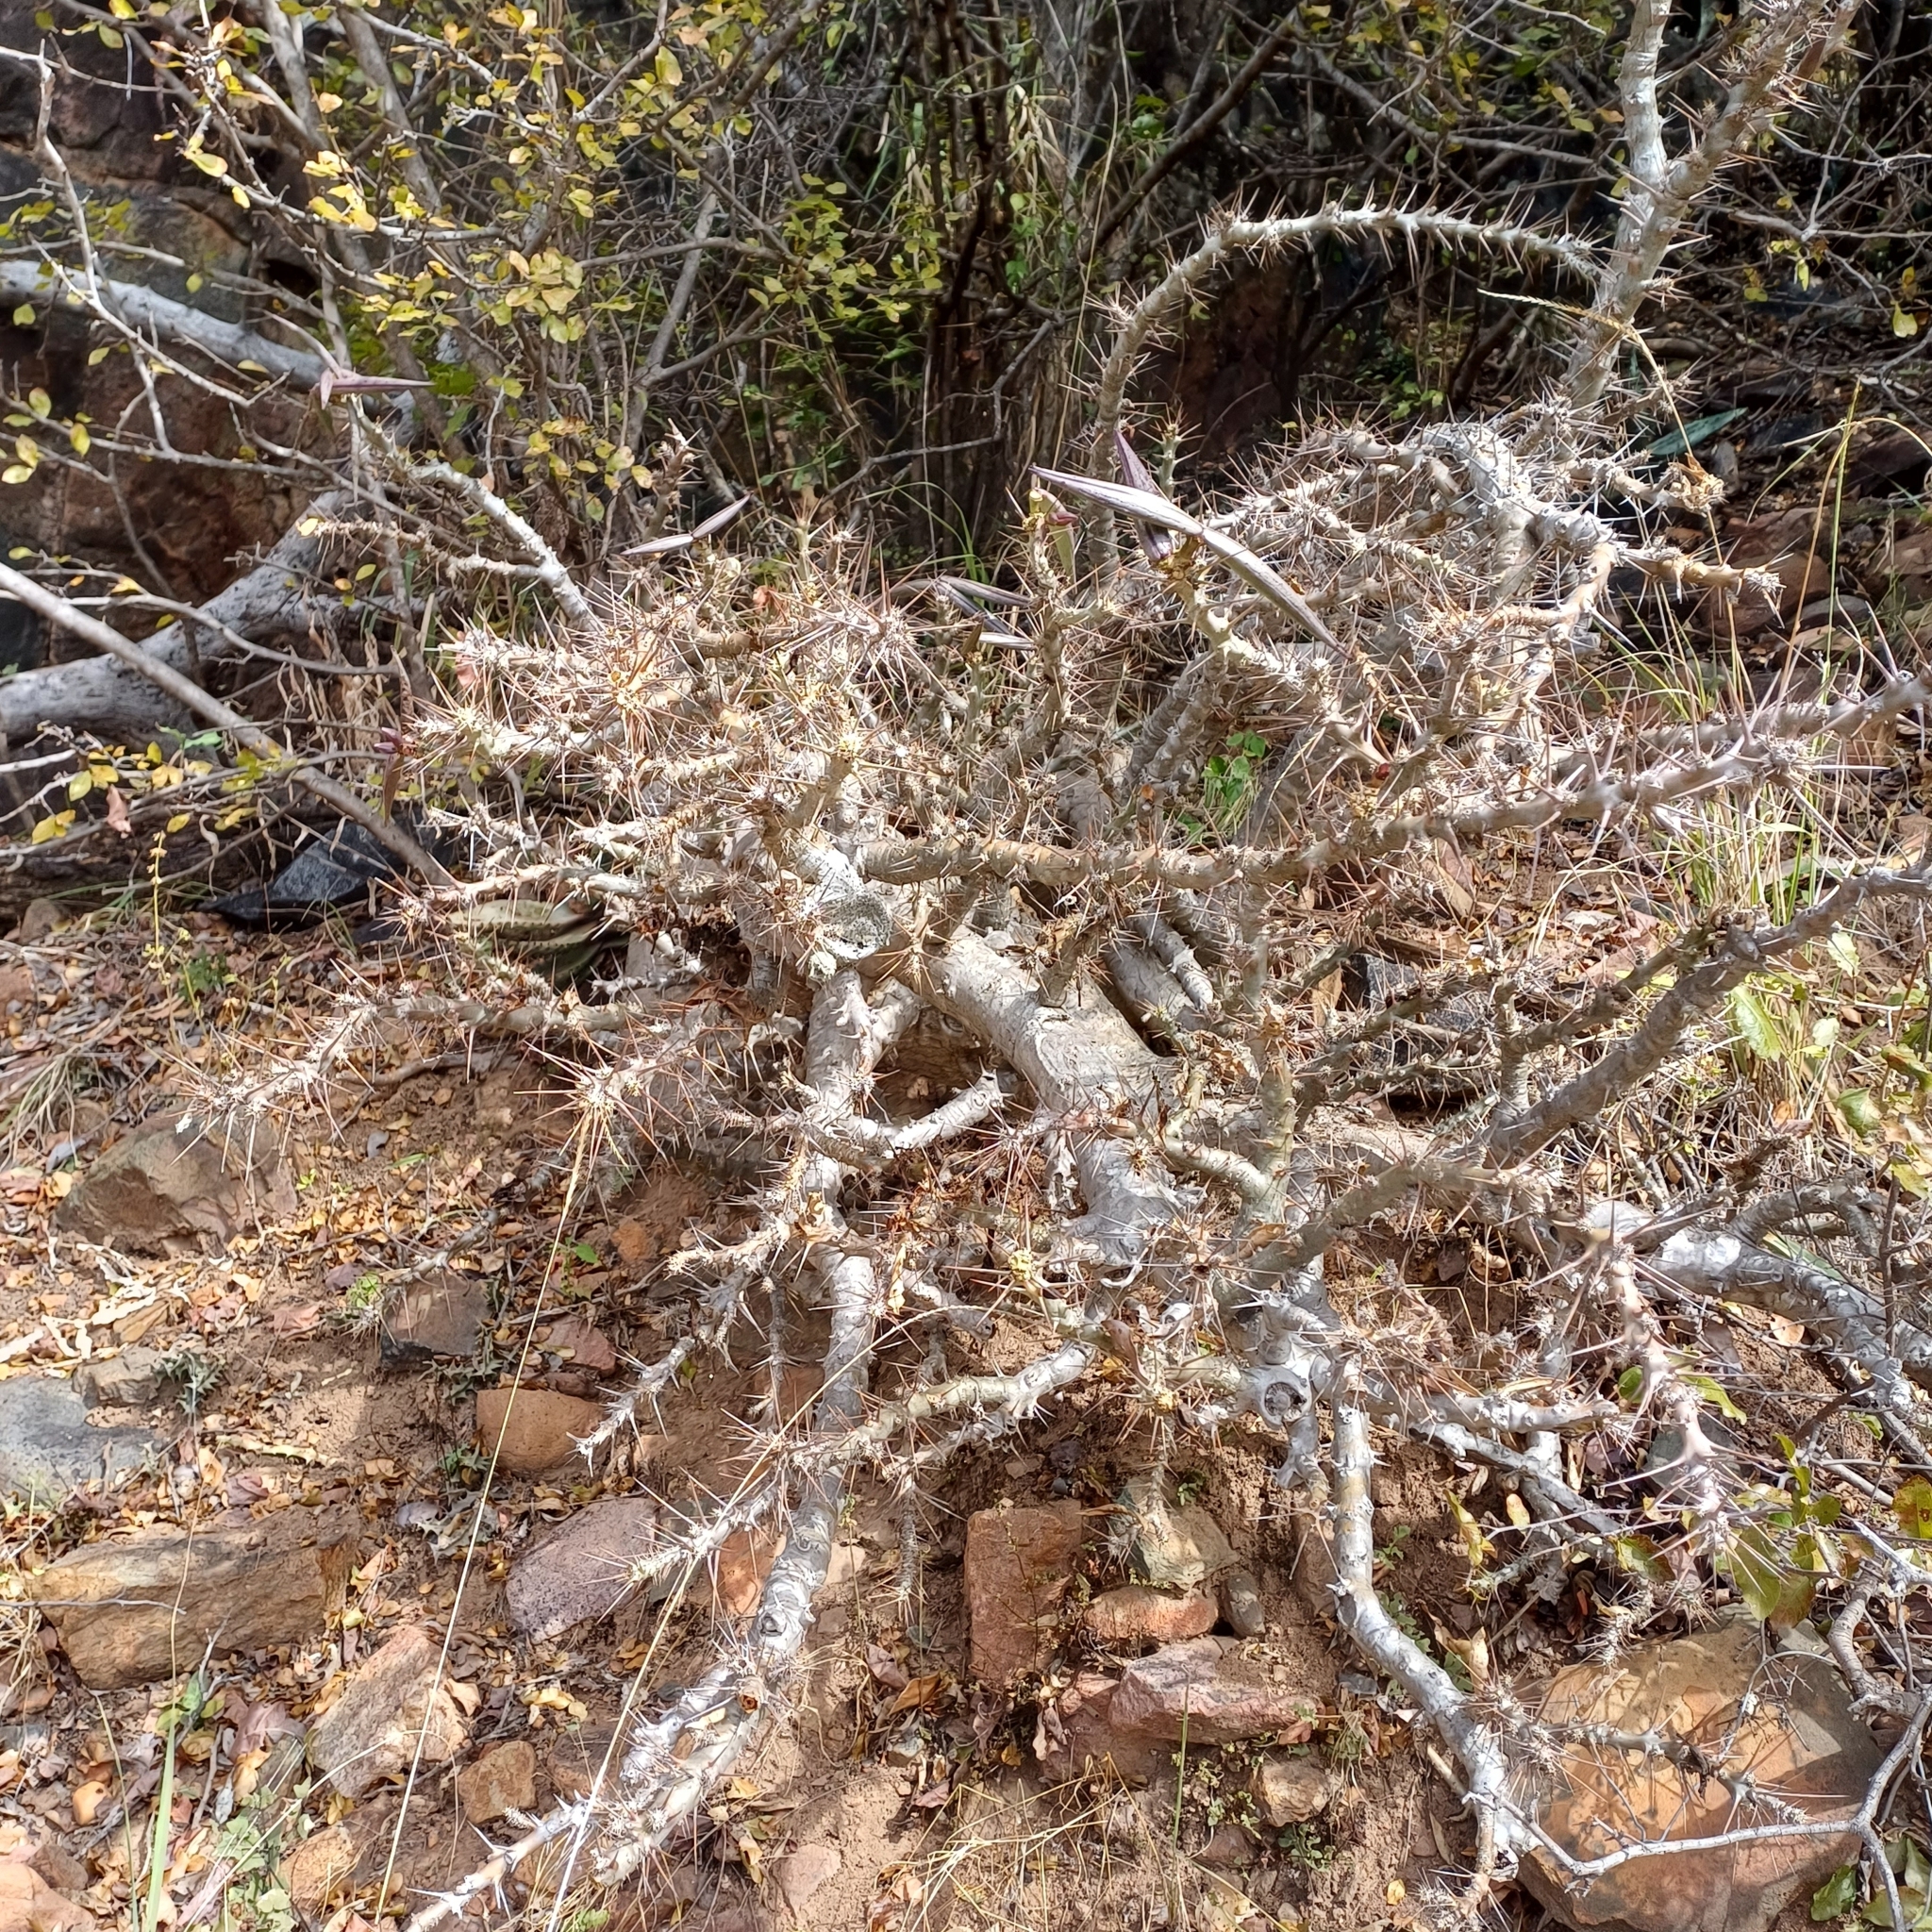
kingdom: Plantae
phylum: Tracheophyta
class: Magnoliopsida
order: Gentianales
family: Apocynaceae
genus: Pachypodium
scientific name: Pachypodium saundersii
